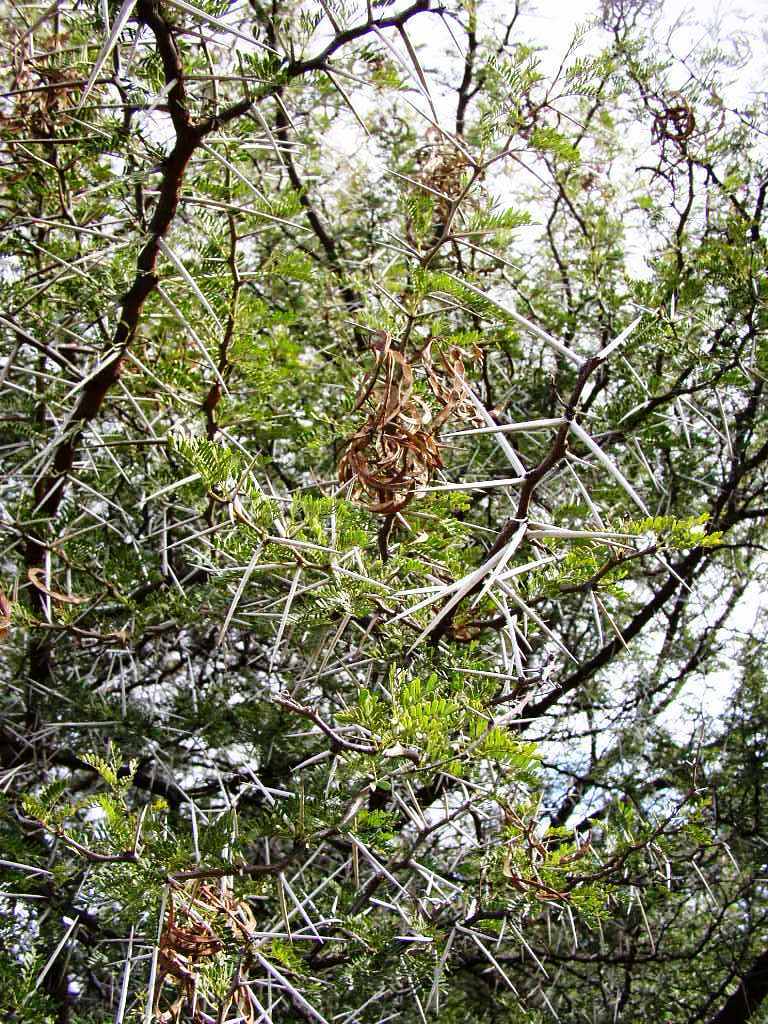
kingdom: Plantae
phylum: Tracheophyta
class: Magnoliopsida
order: Fabales
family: Fabaceae
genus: Vachellia
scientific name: Vachellia karroo
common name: Sweet thorn
